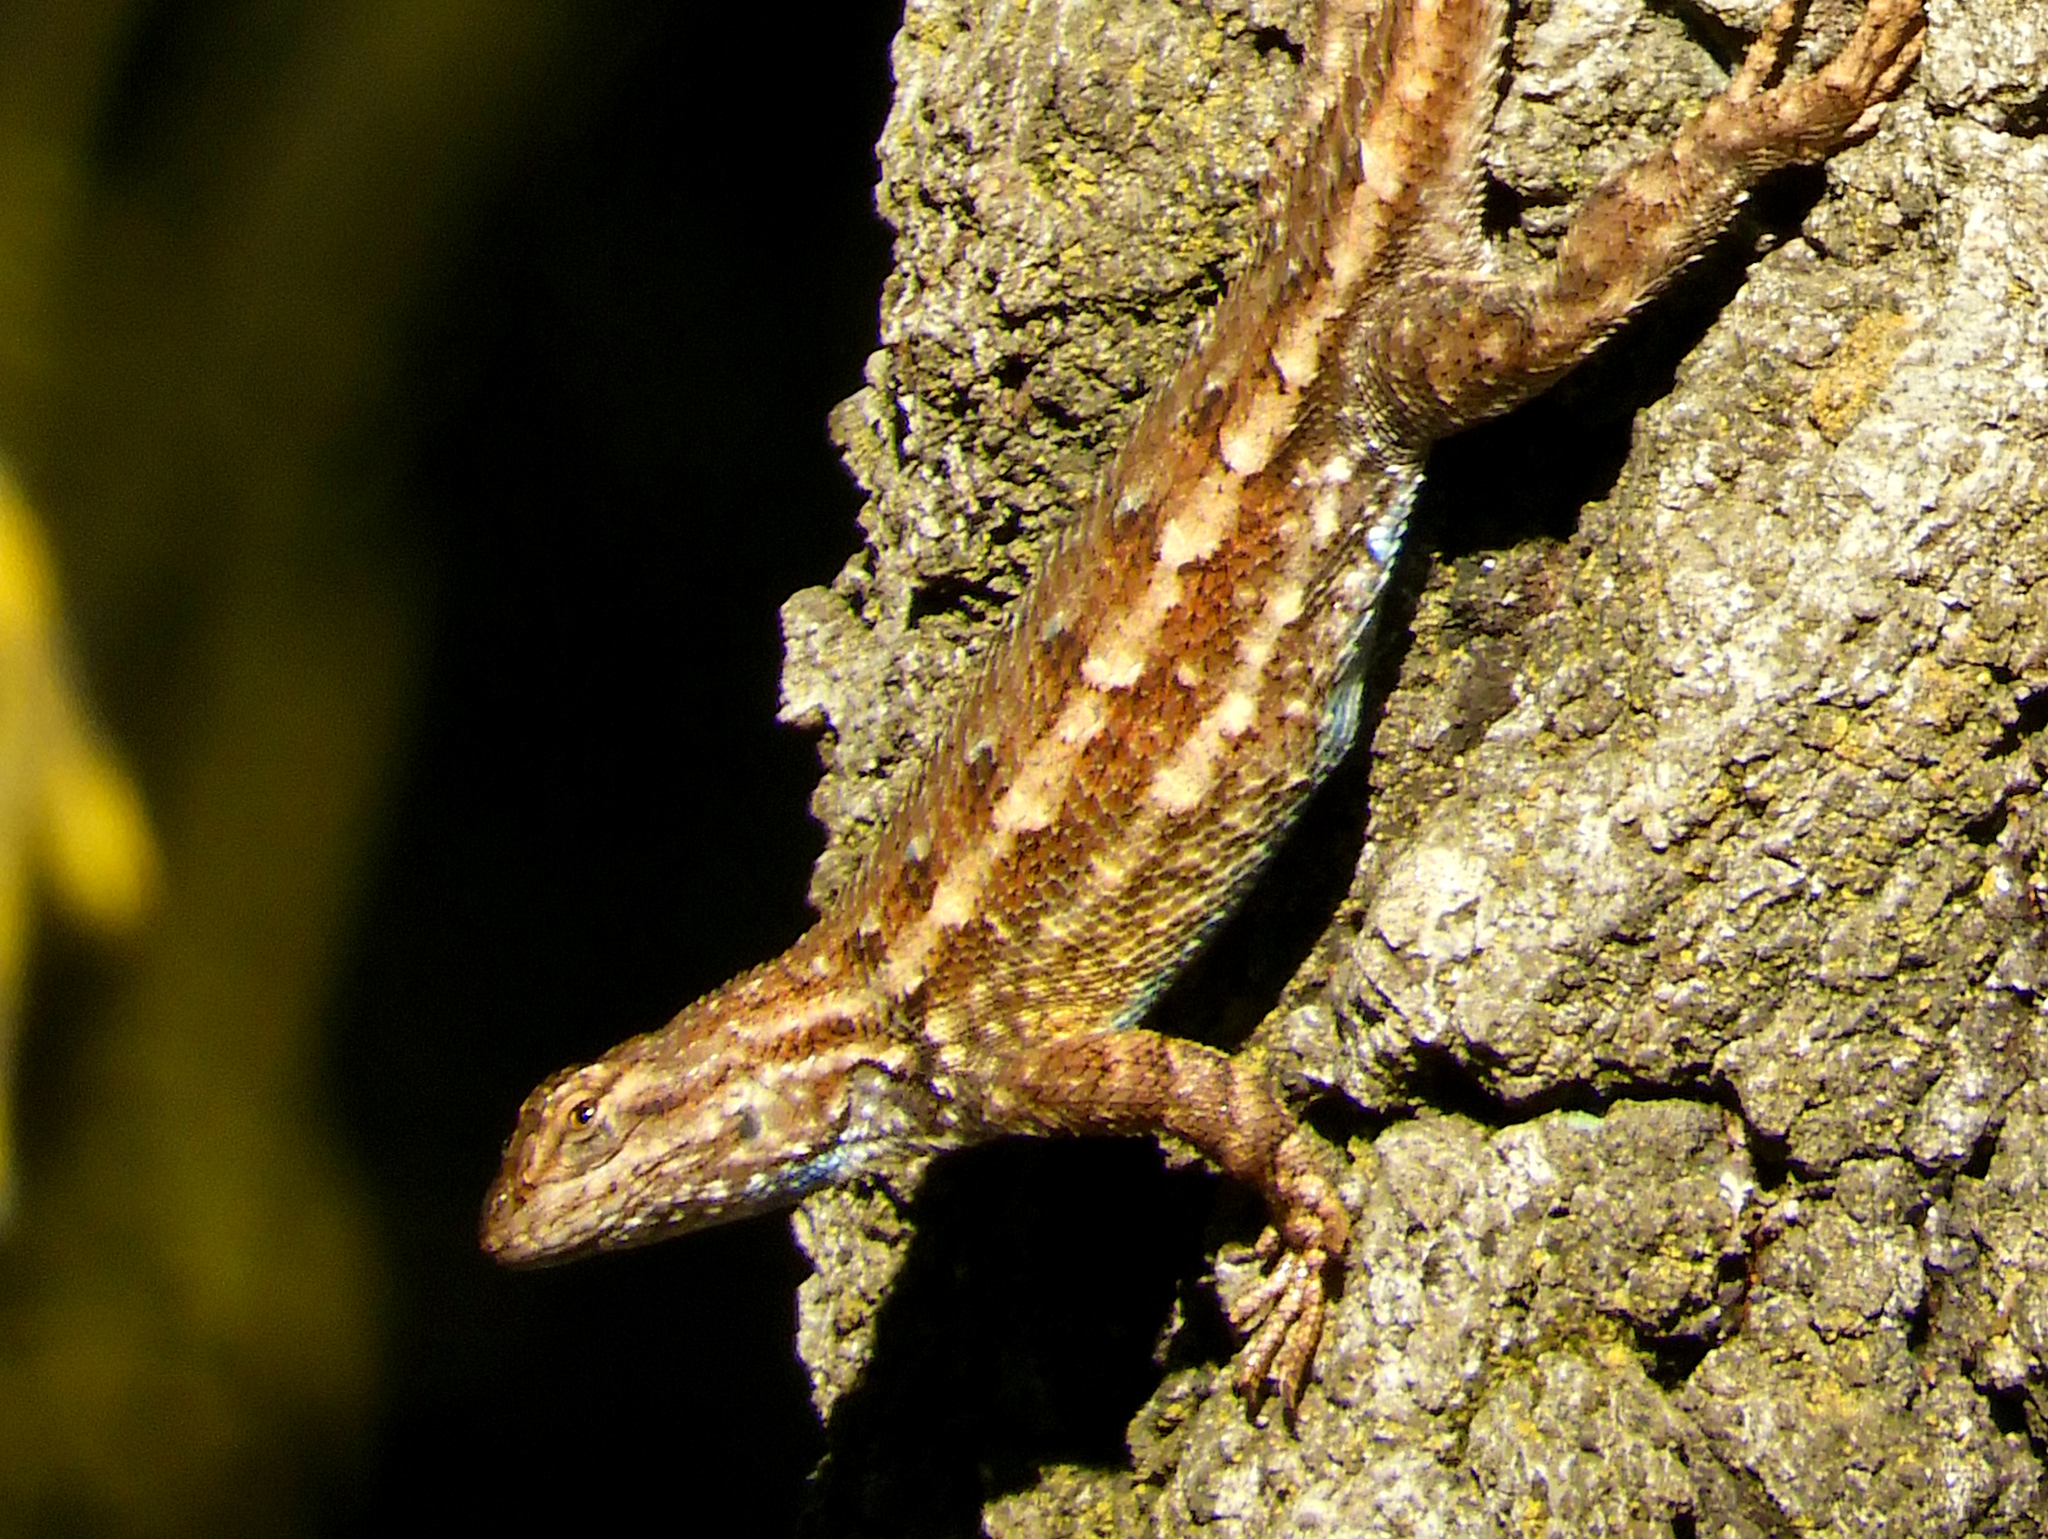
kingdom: Animalia
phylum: Chordata
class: Squamata
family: Phrynosomatidae
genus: Sceloporus
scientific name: Sceloporus occidentalis
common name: Western fence lizard
